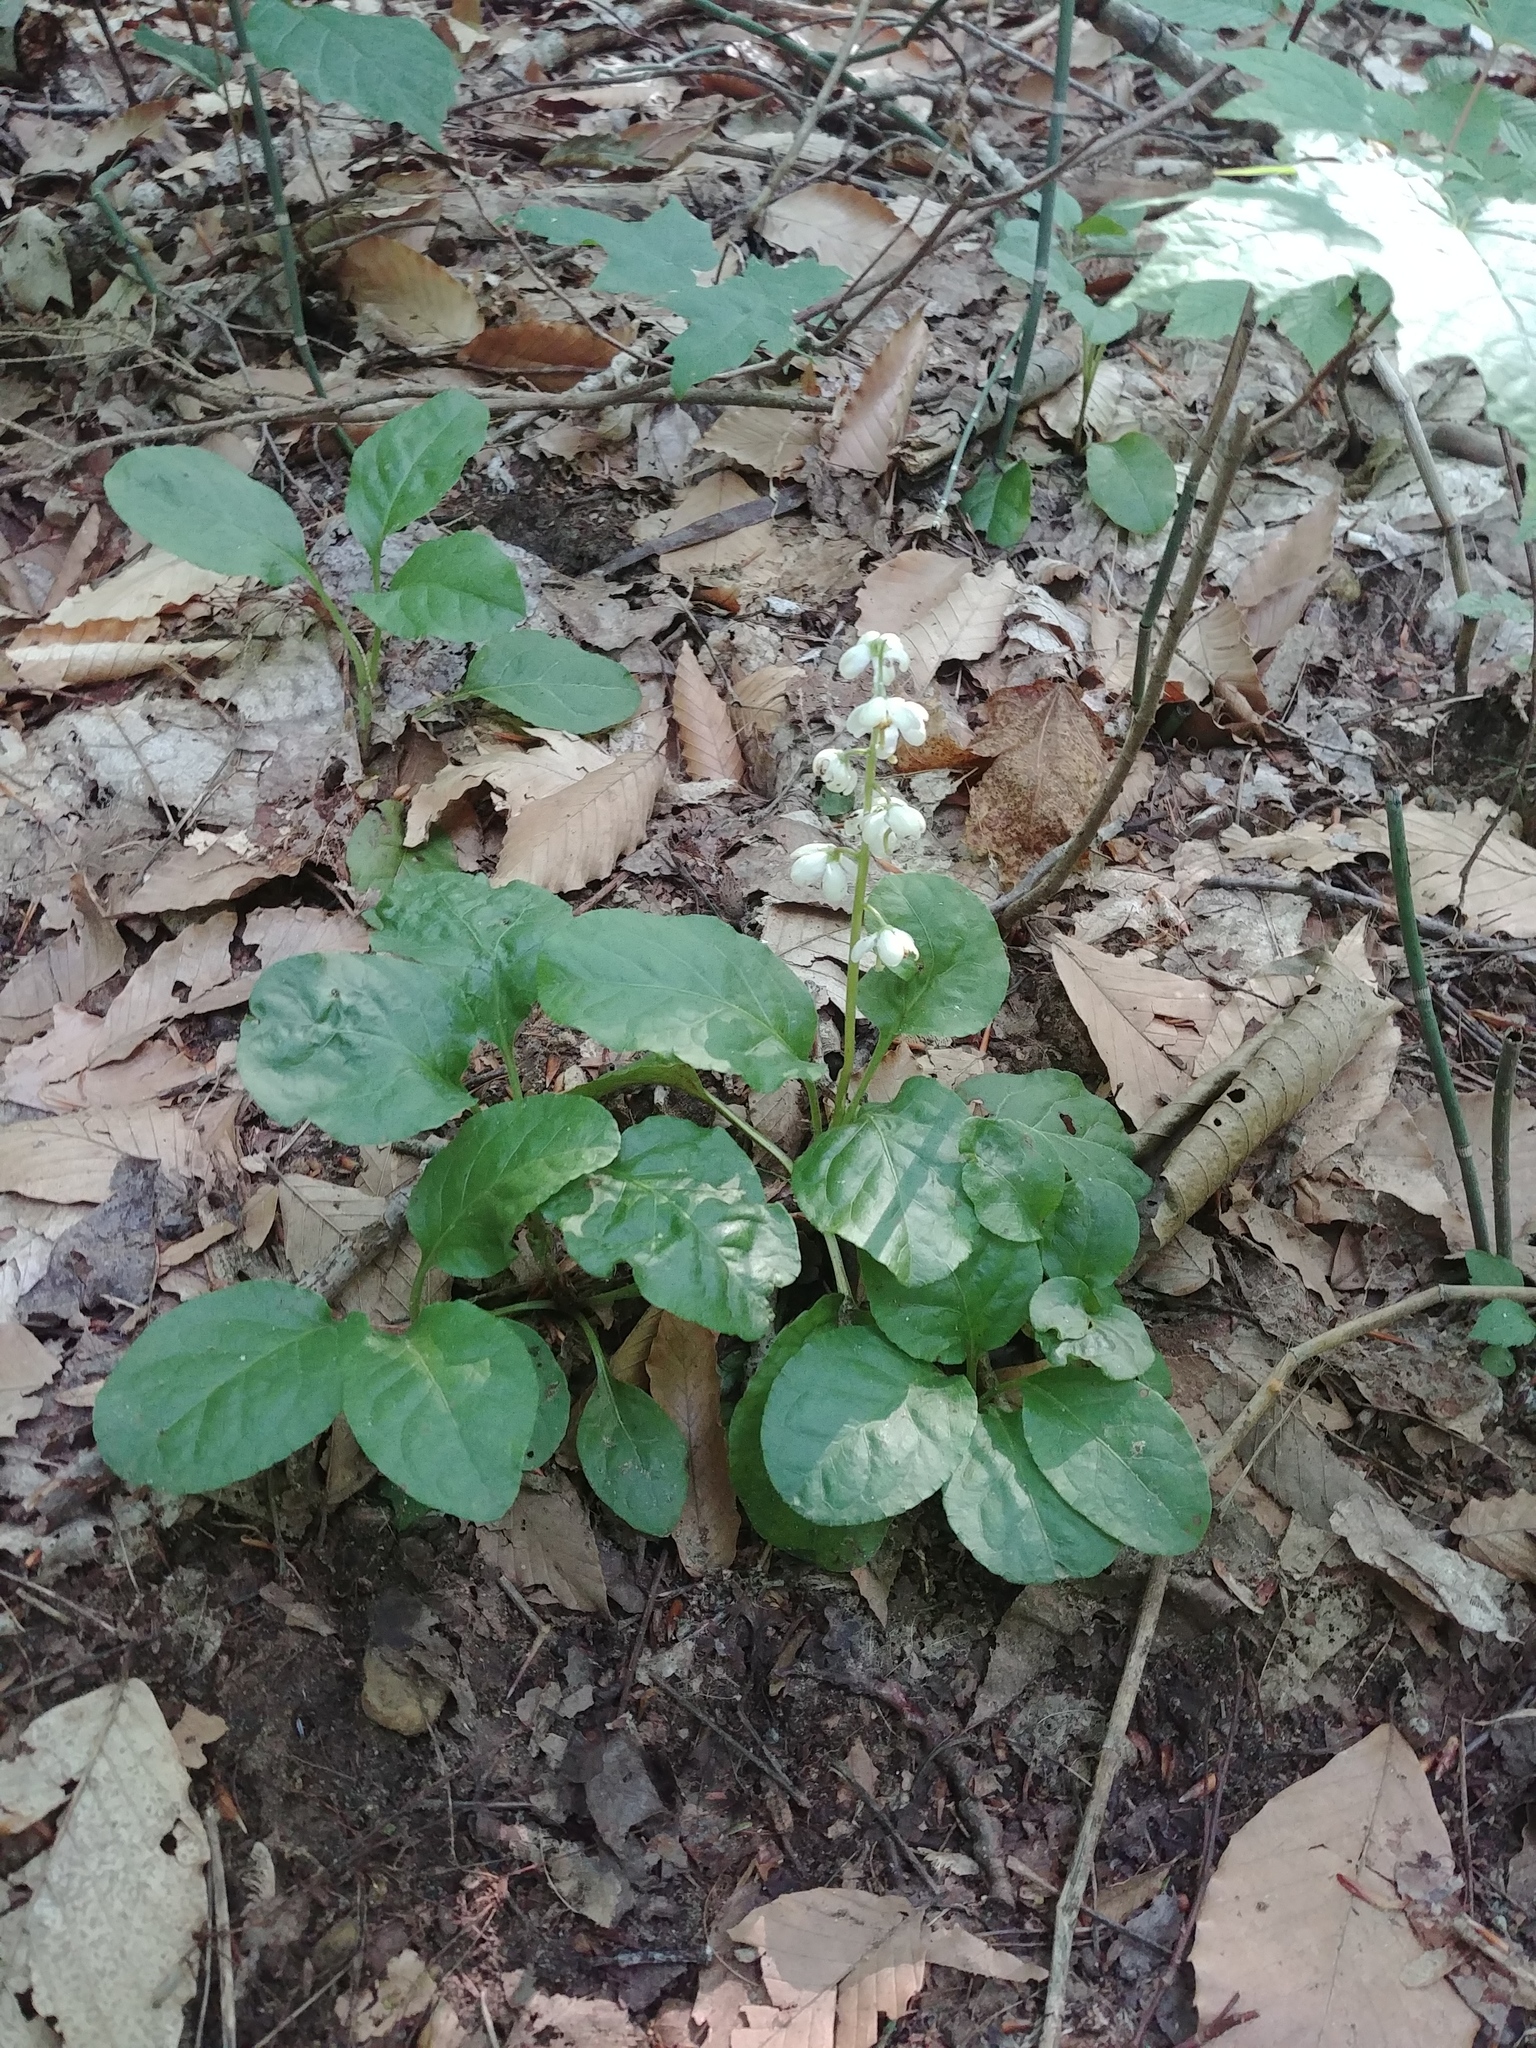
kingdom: Plantae
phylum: Tracheophyta
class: Magnoliopsida
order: Ericales
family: Ericaceae
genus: Pyrola
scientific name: Pyrola elliptica
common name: Shinleaf
